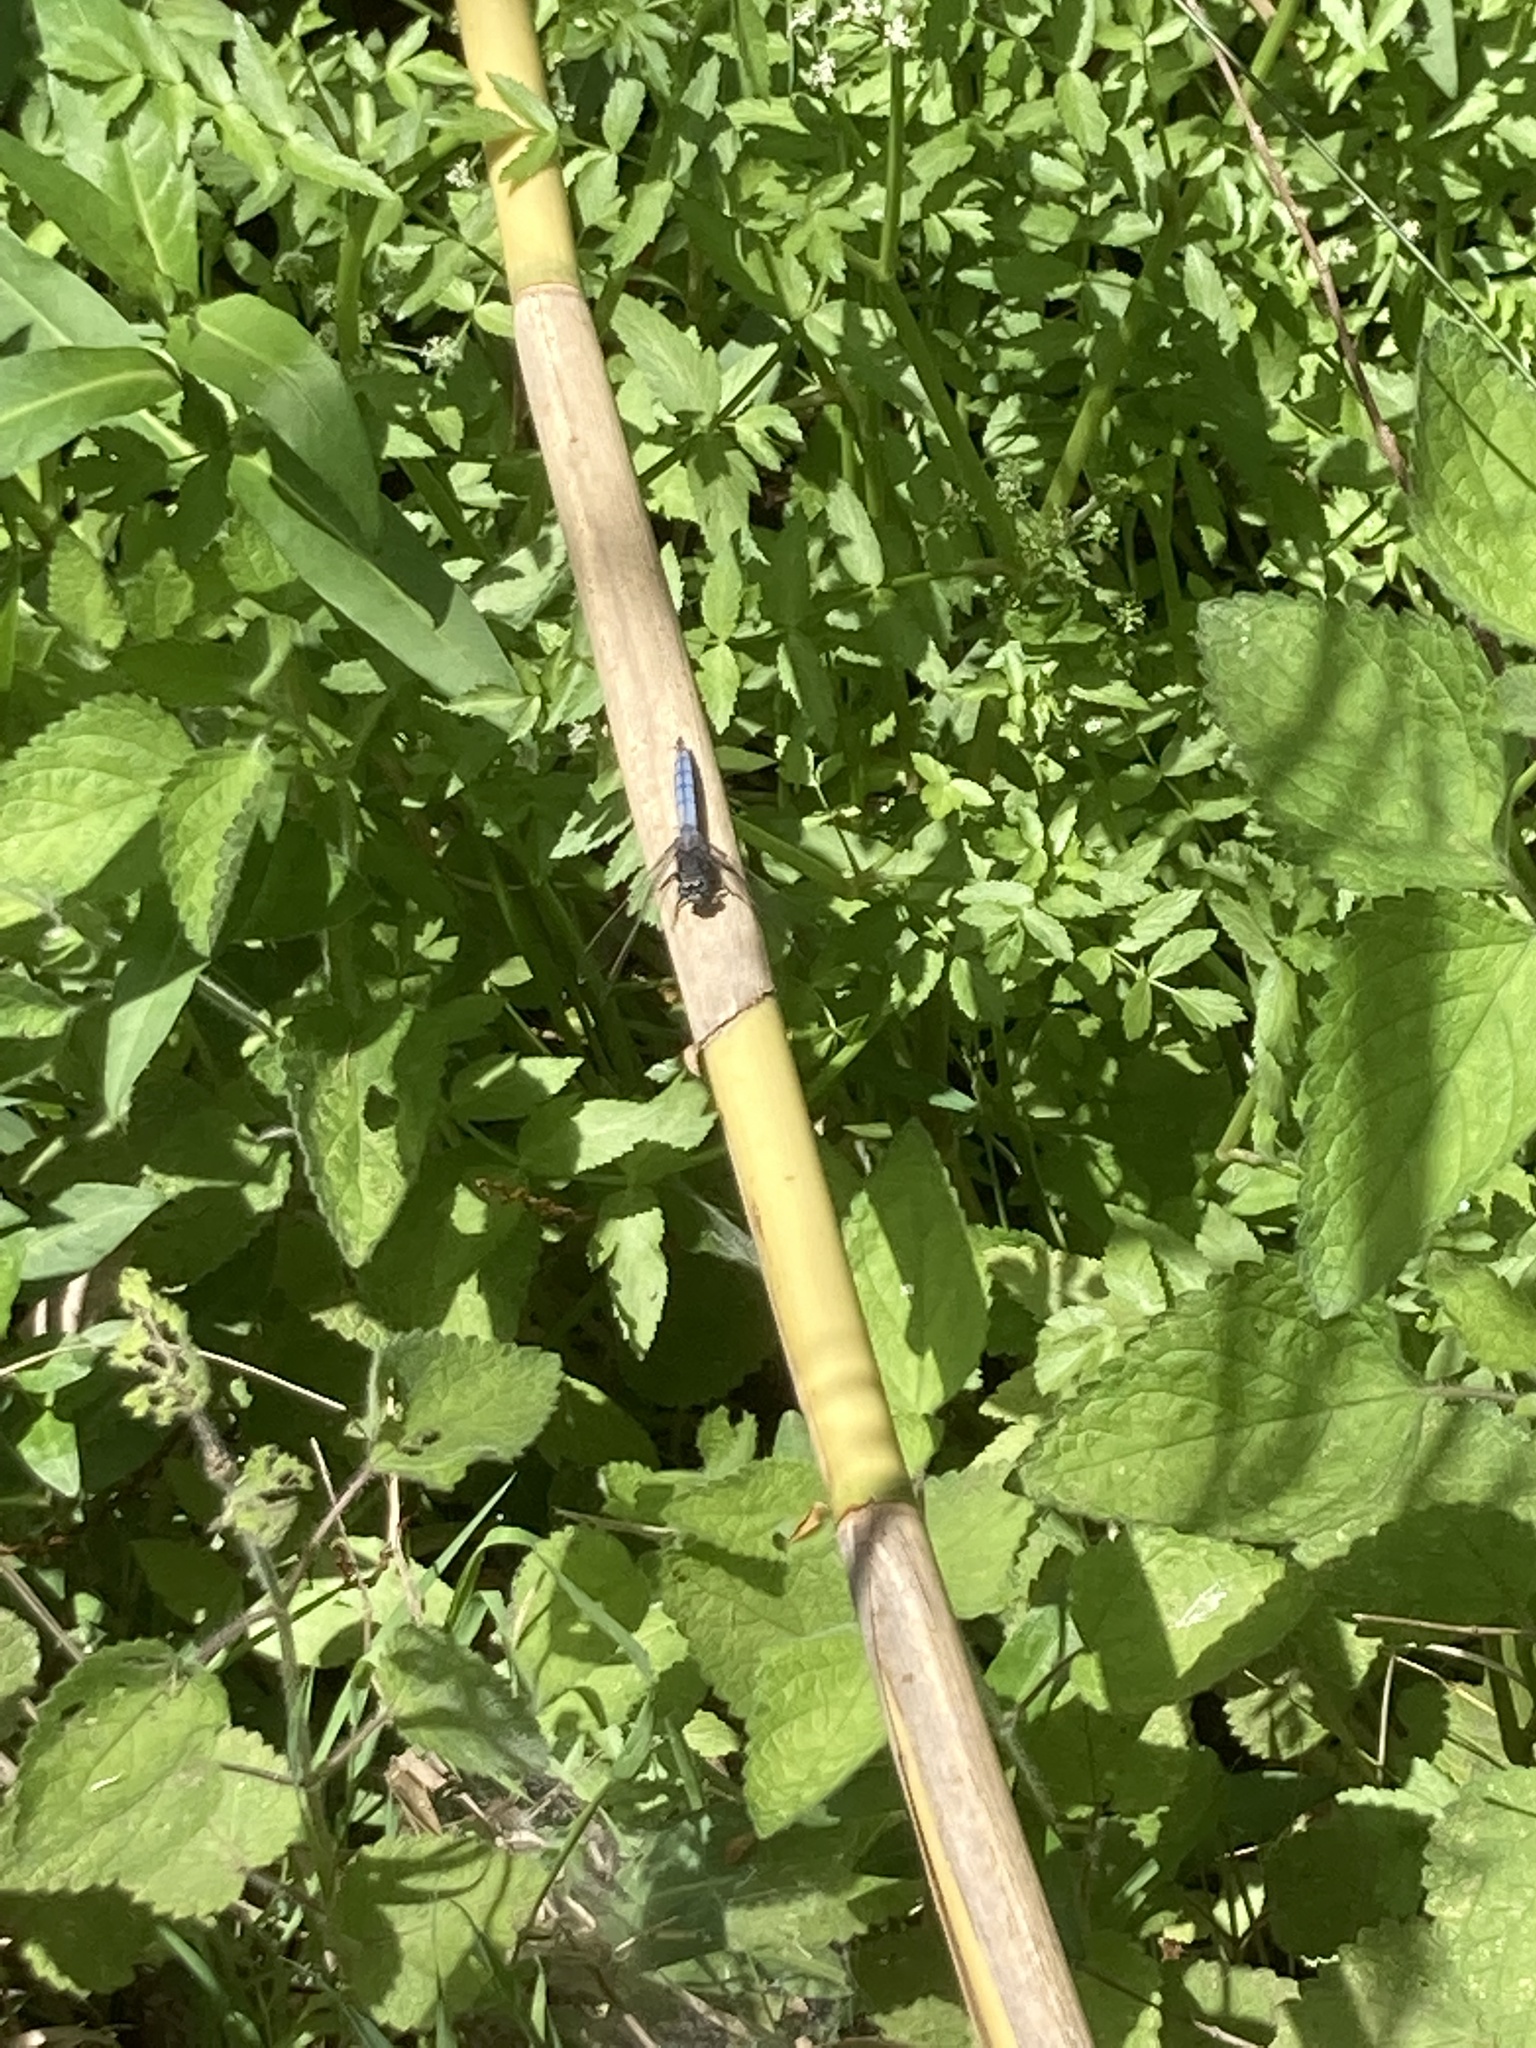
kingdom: Animalia
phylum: Arthropoda
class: Insecta
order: Odonata
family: Libellulidae
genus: Orthetrum
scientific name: Orthetrum coerulescens
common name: Keeled skimmer
